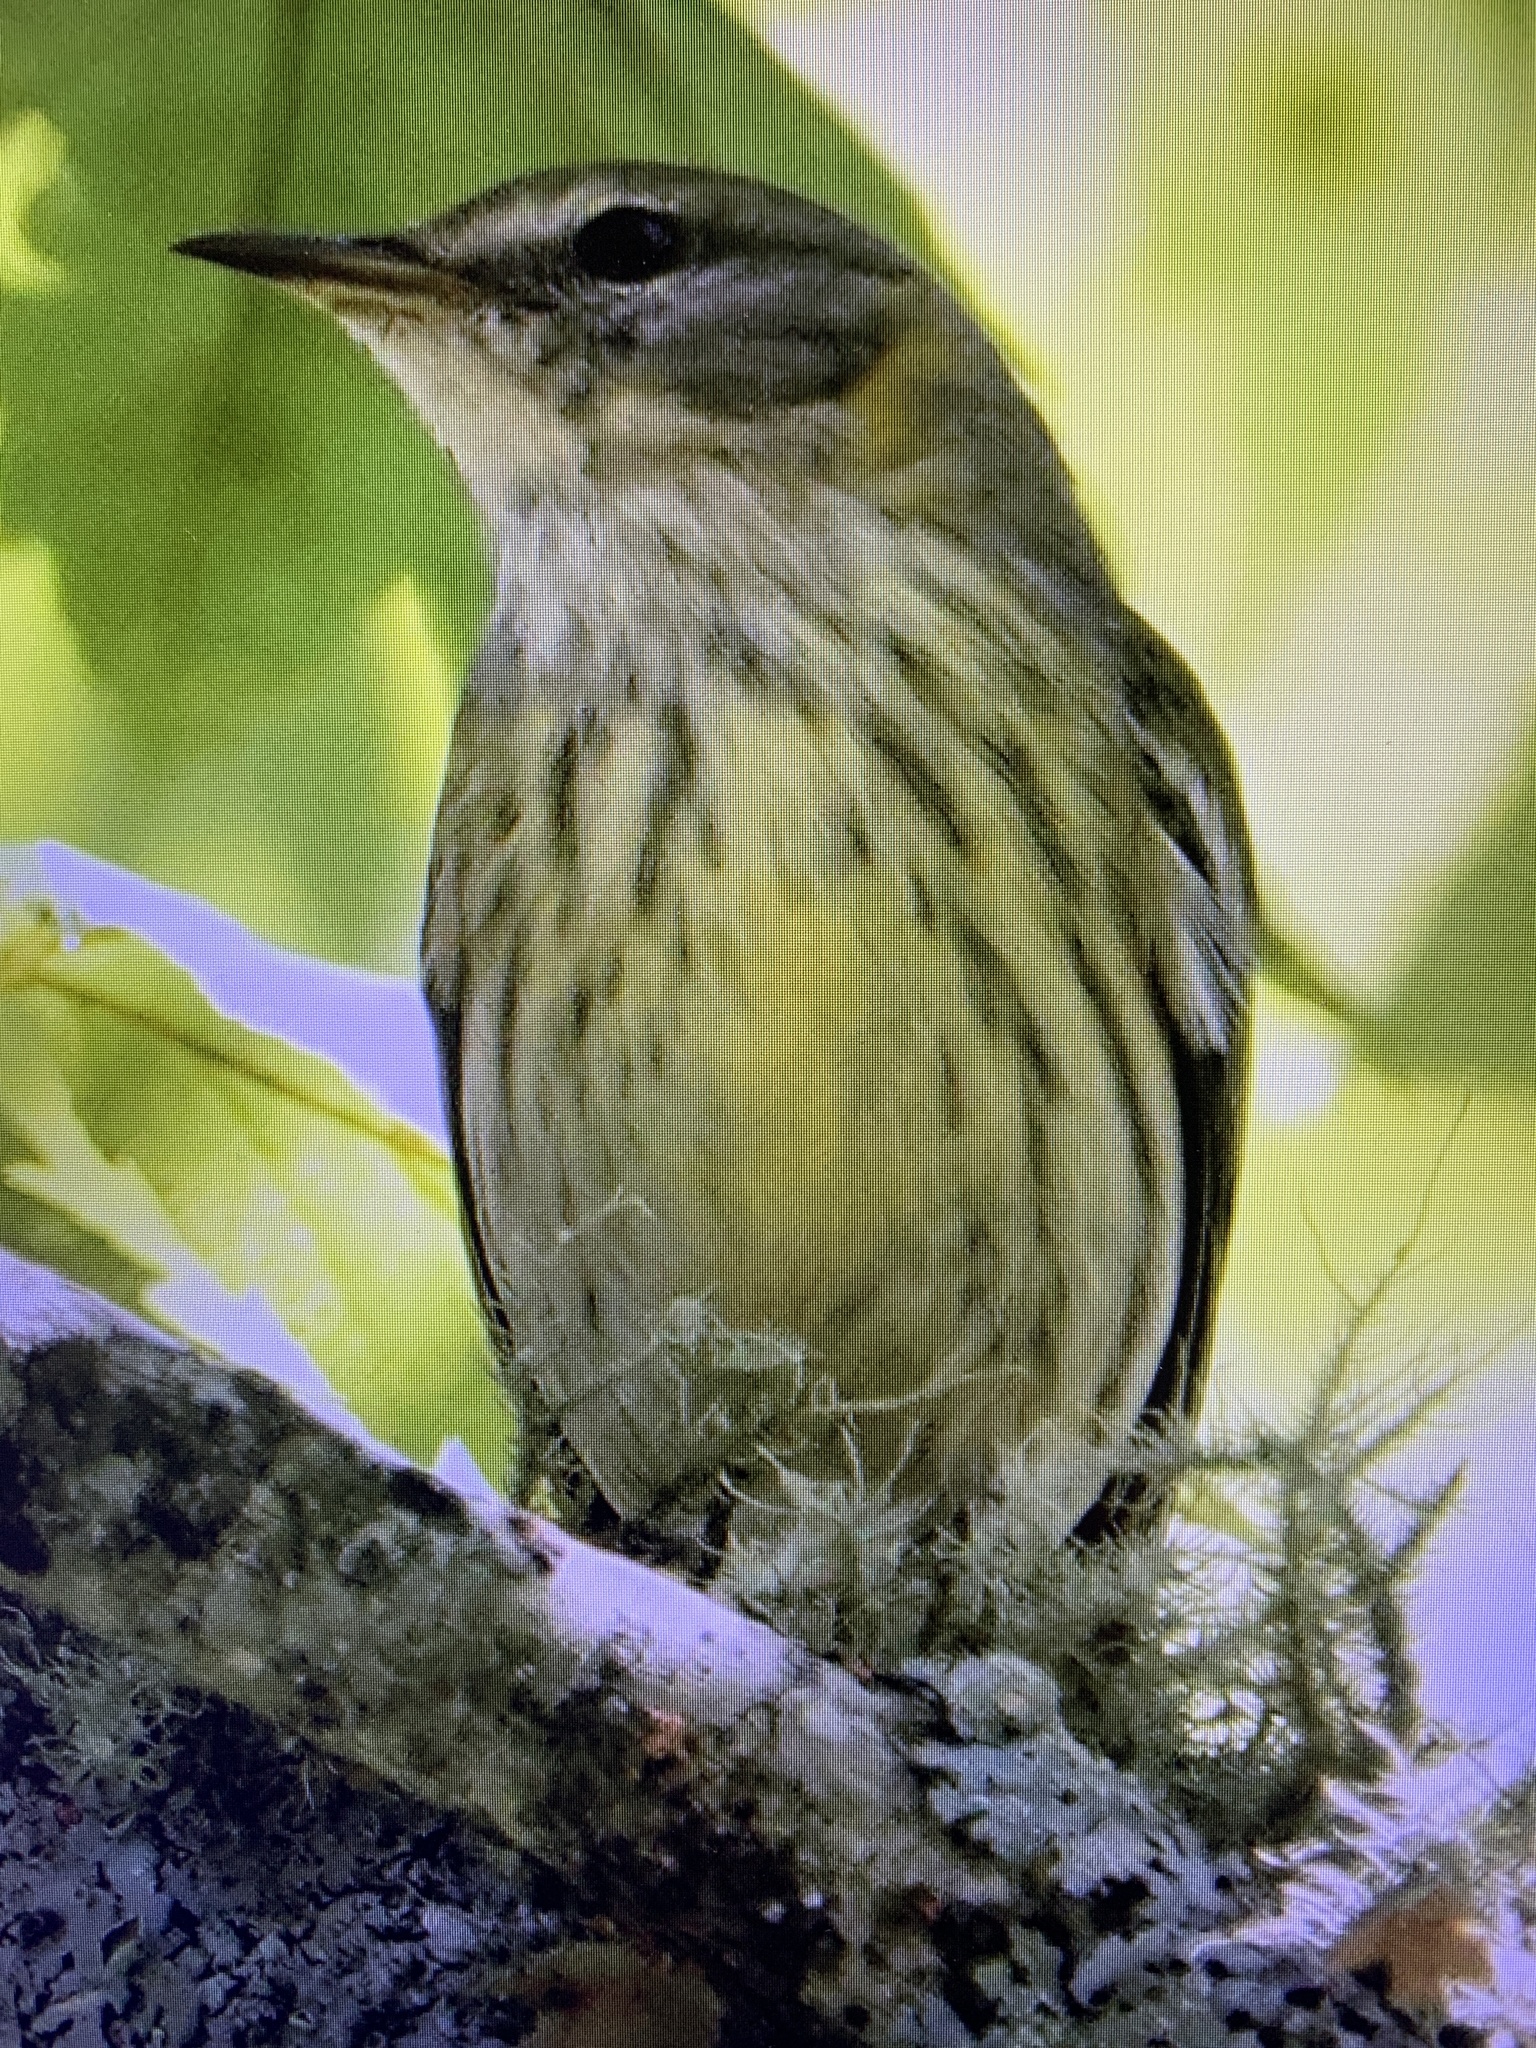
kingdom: Animalia
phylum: Chordata
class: Aves
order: Passeriformes
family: Parulidae
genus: Setophaga
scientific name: Setophaga tigrina
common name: Cape may warbler
